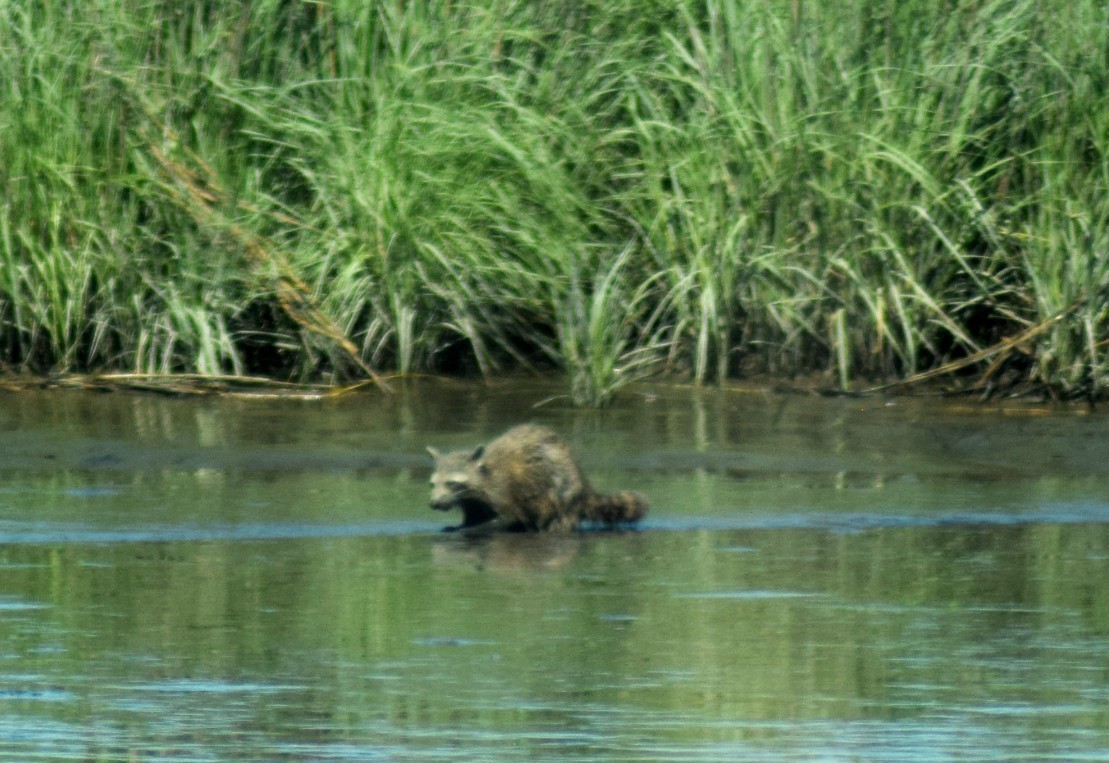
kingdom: Animalia
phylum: Chordata
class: Mammalia
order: Carnivora
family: Procyonidae
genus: Procyon
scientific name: Procyon lotor
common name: Raccoon
